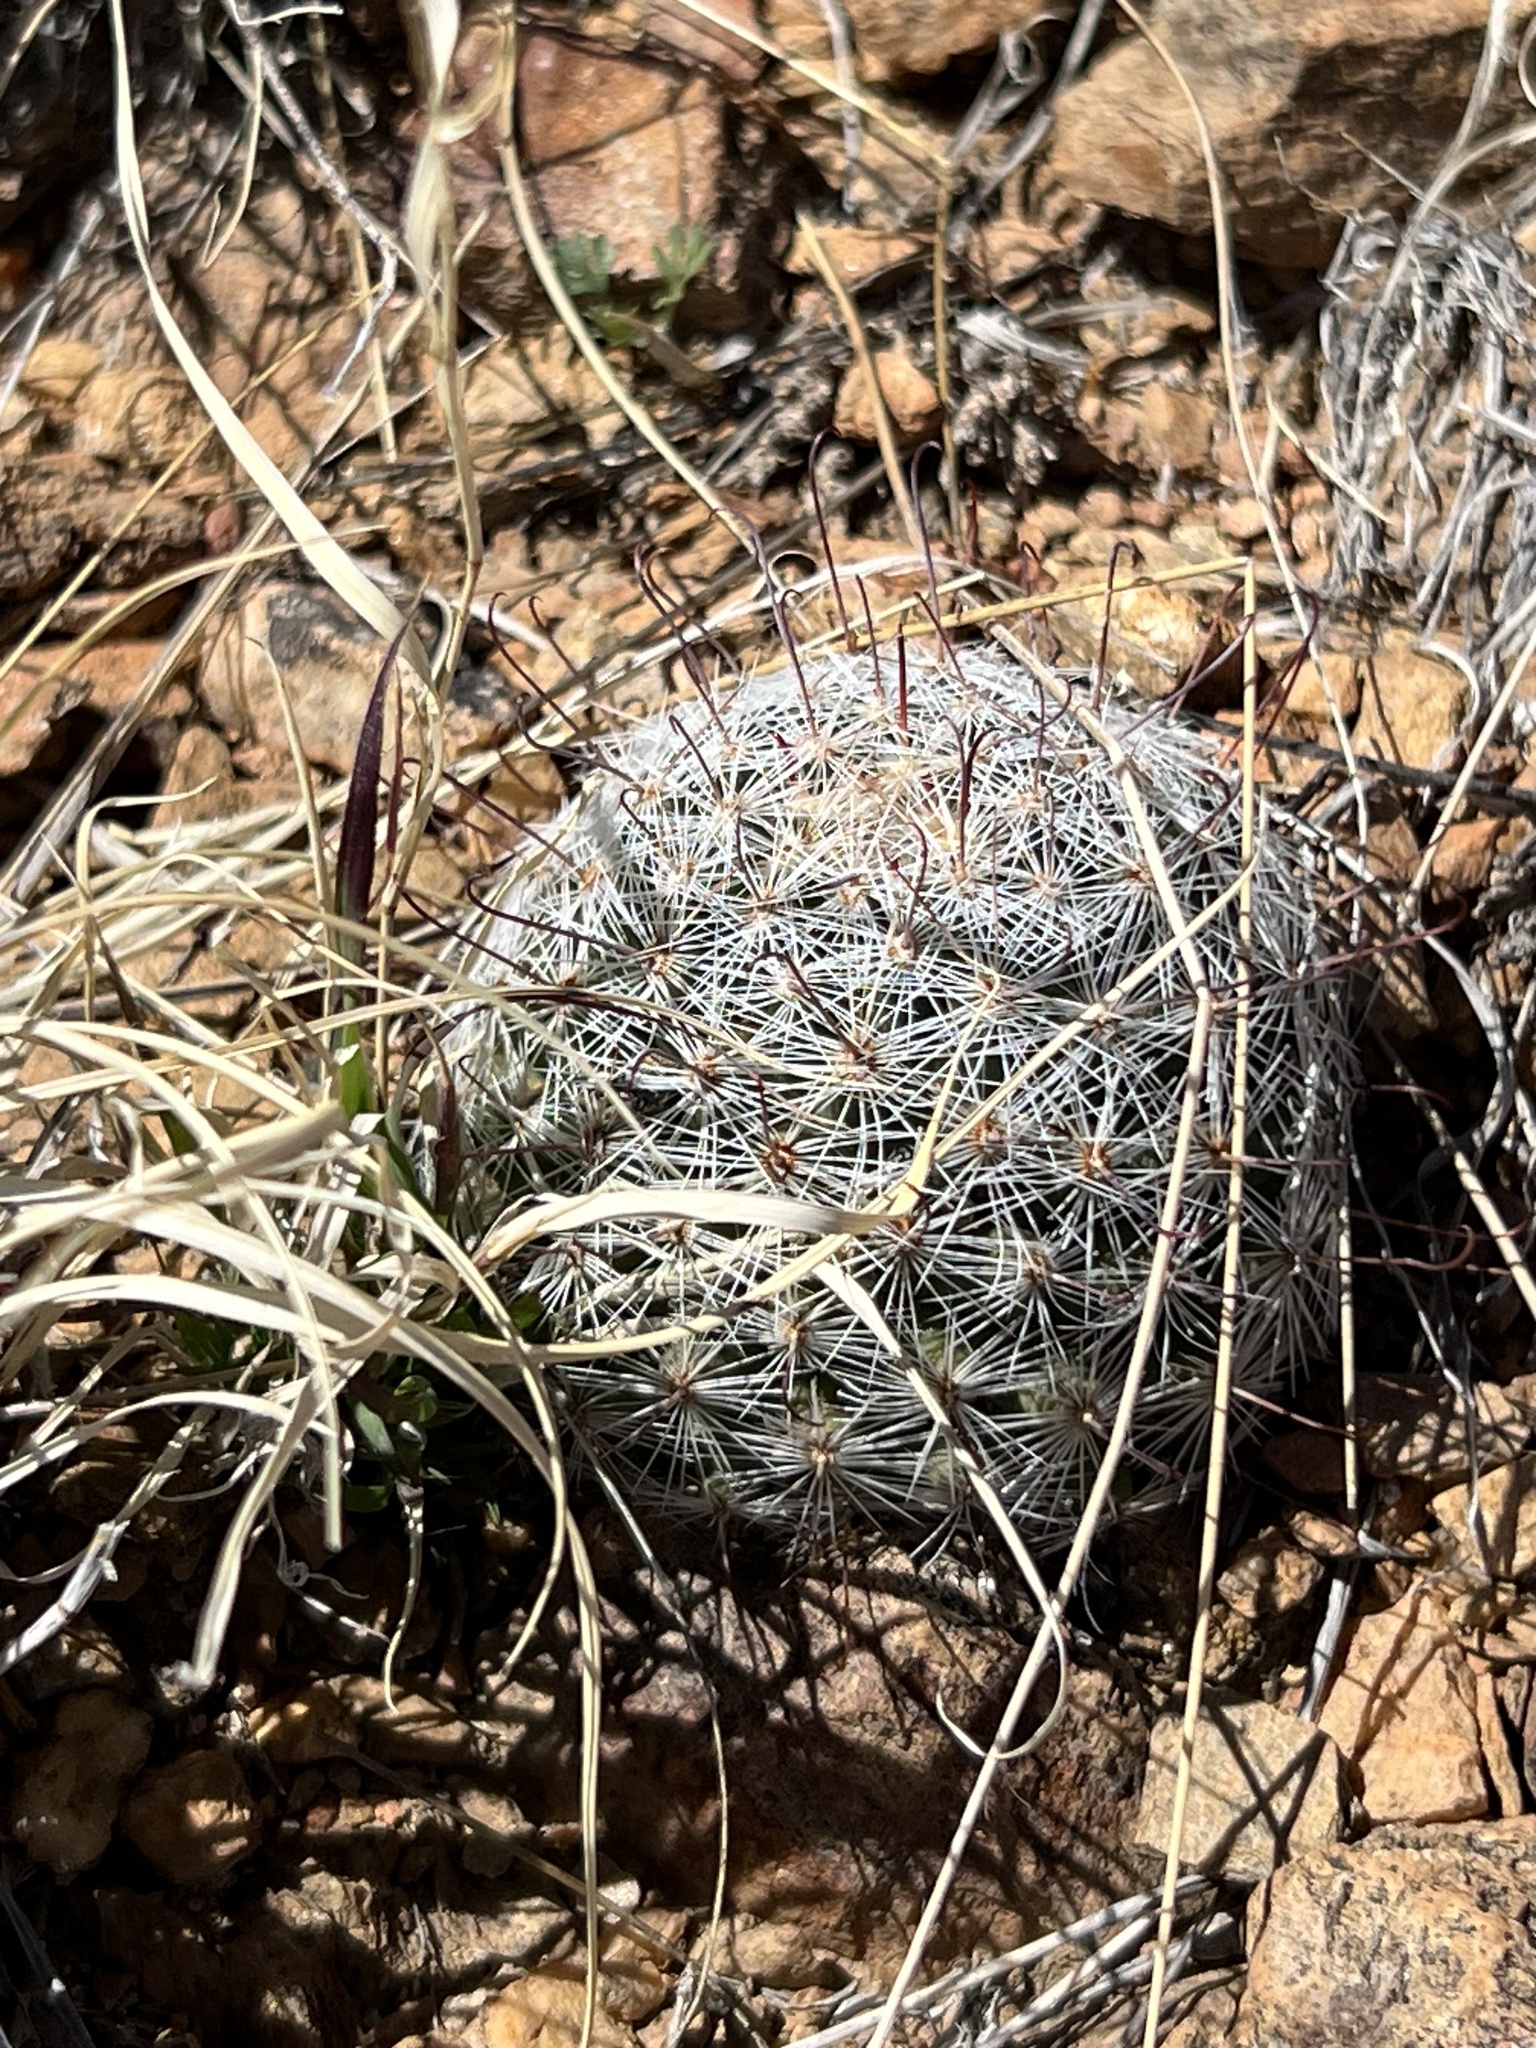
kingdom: Plantae
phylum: Tracheophyta
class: Magnoliopsida
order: Caryophyllales
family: Cactaceae
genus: Cochemiea
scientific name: Cochemiea grahamii
